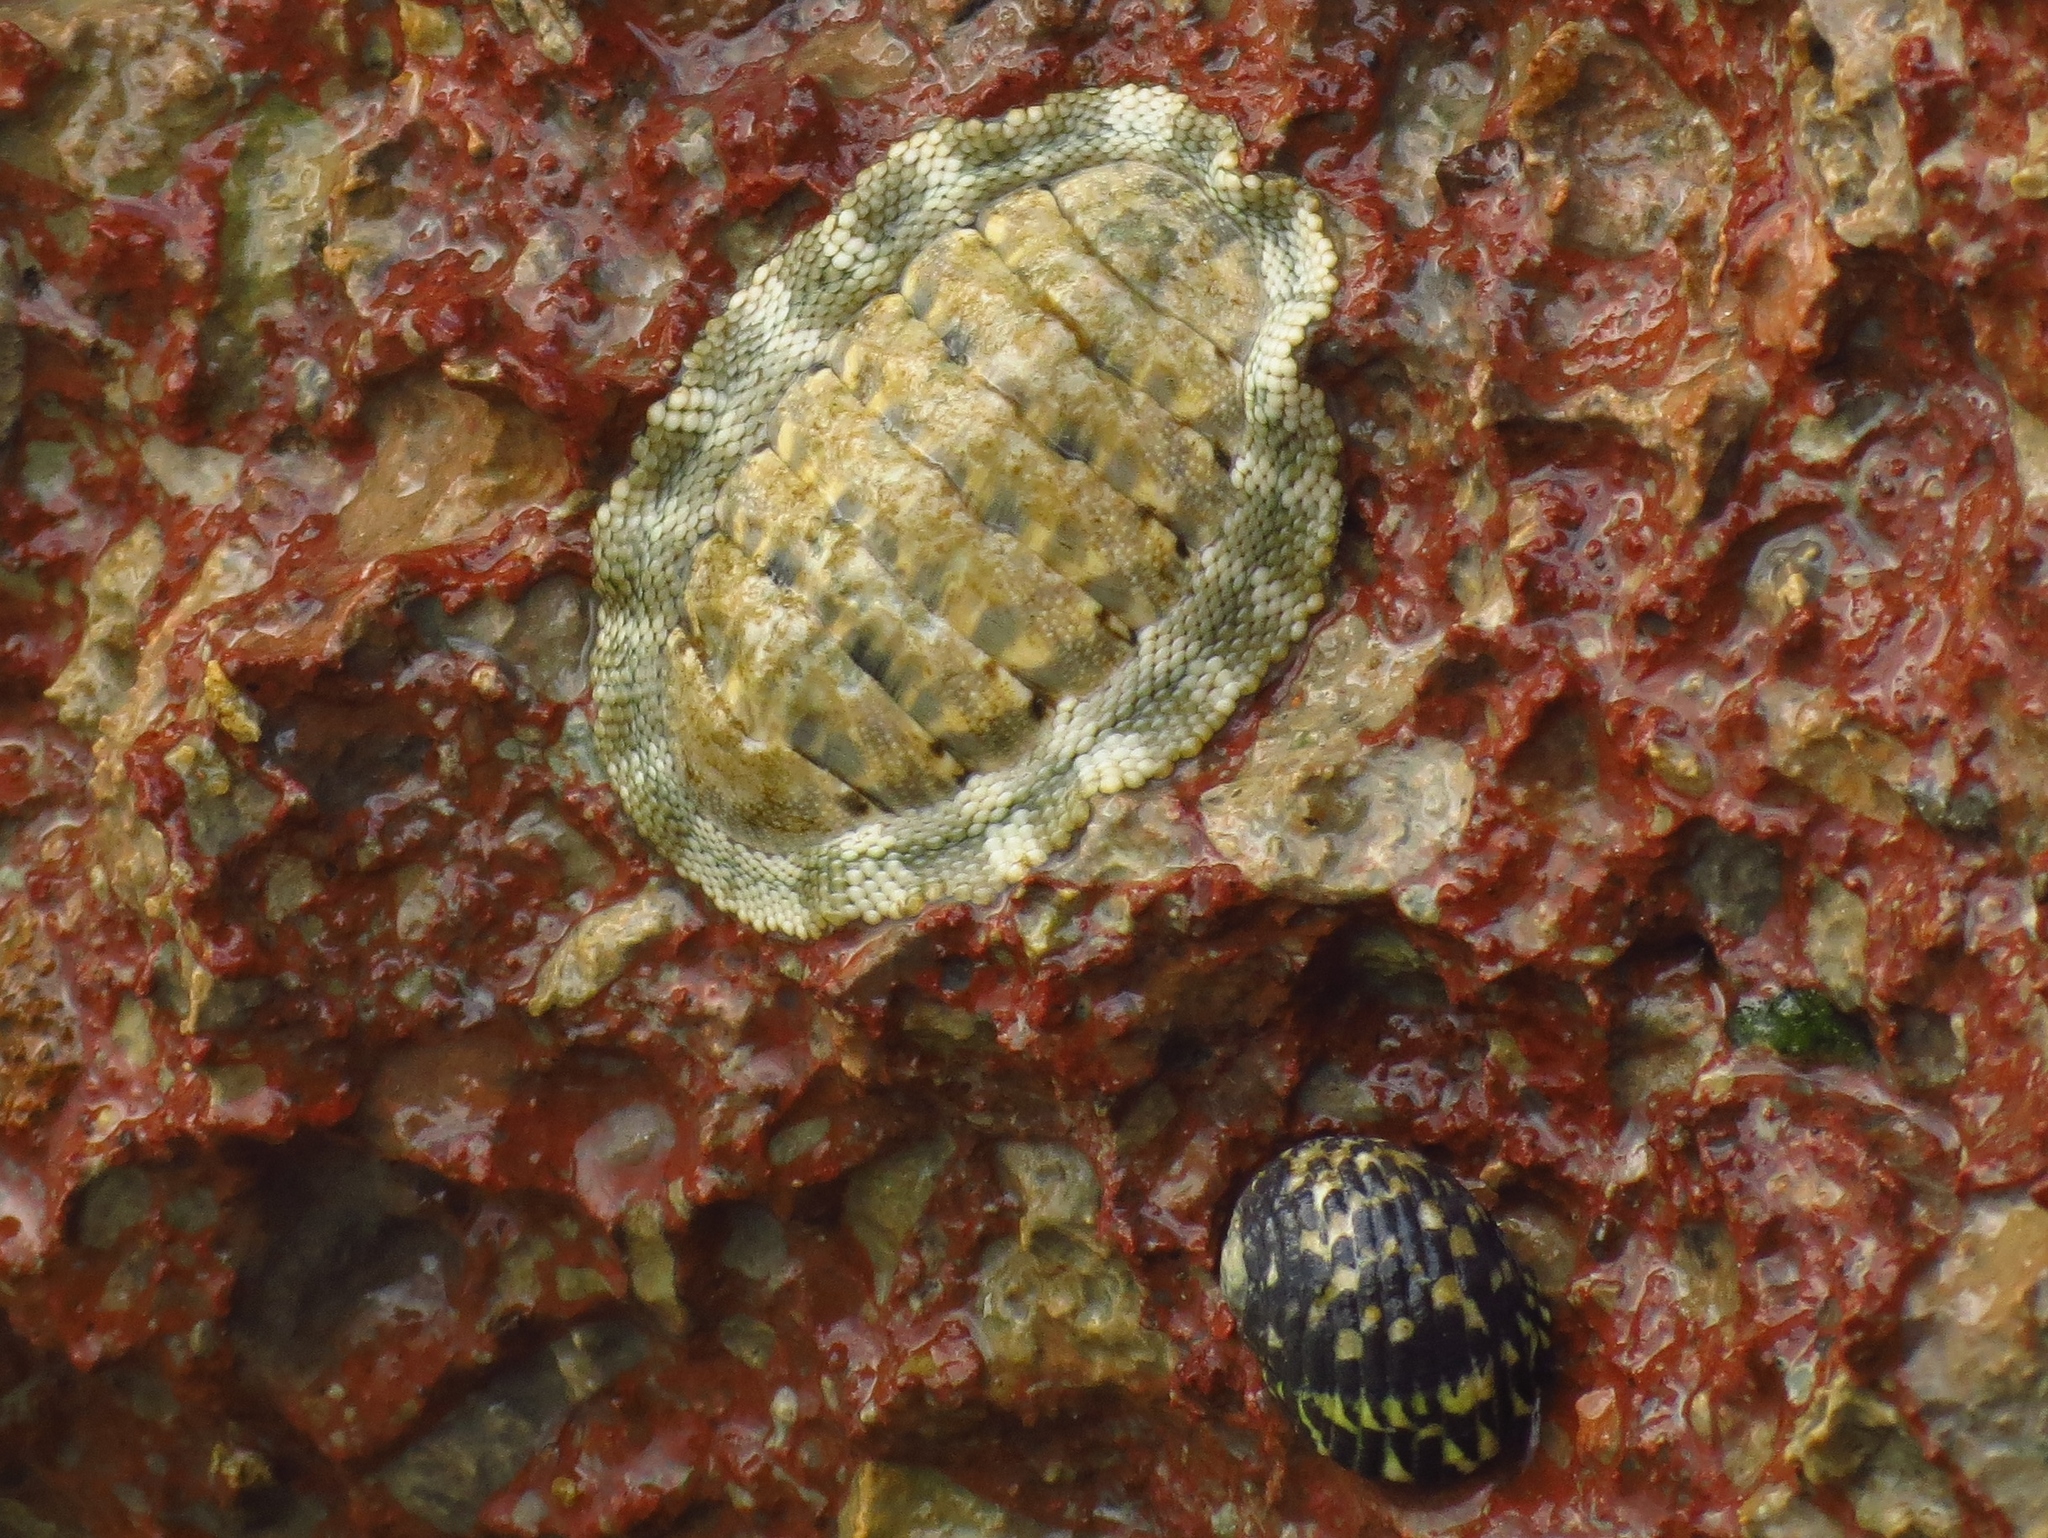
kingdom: Animalia
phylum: Mollusca
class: Polyplacophora
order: Chitonida
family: Chitonidae
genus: Chiton
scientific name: Chiton squamosus
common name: Squamose chiton
